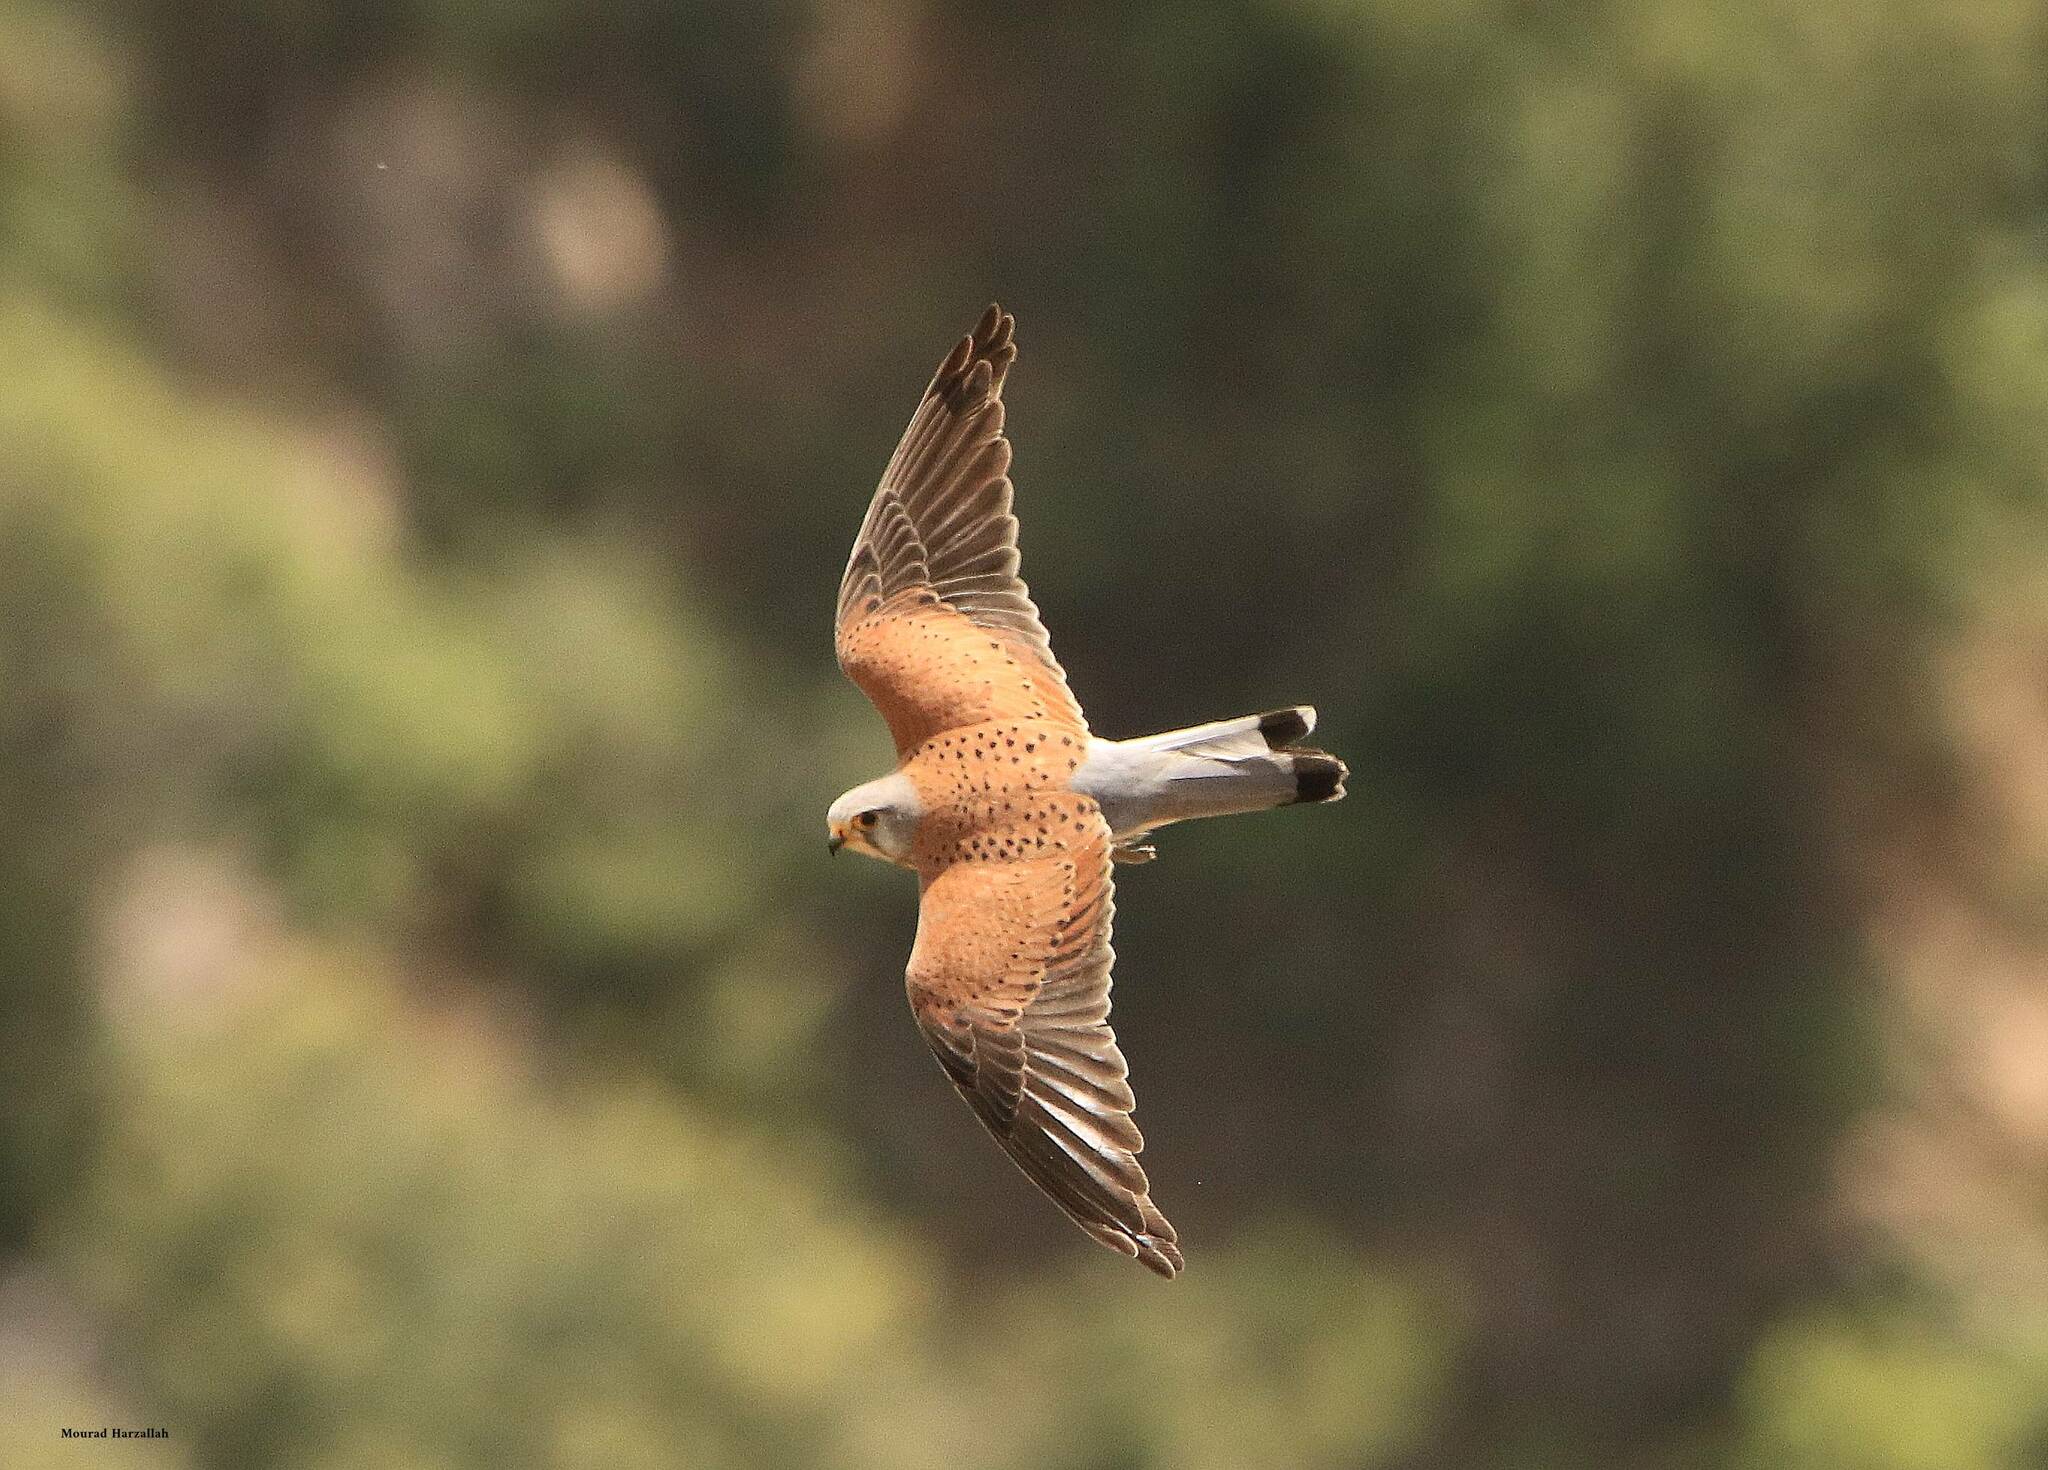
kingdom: Animalia
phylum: Chordata
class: Aves
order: Falconiformes
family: Falconidae
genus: Falco
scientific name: Falco tinnunculus
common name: Common kestrel
